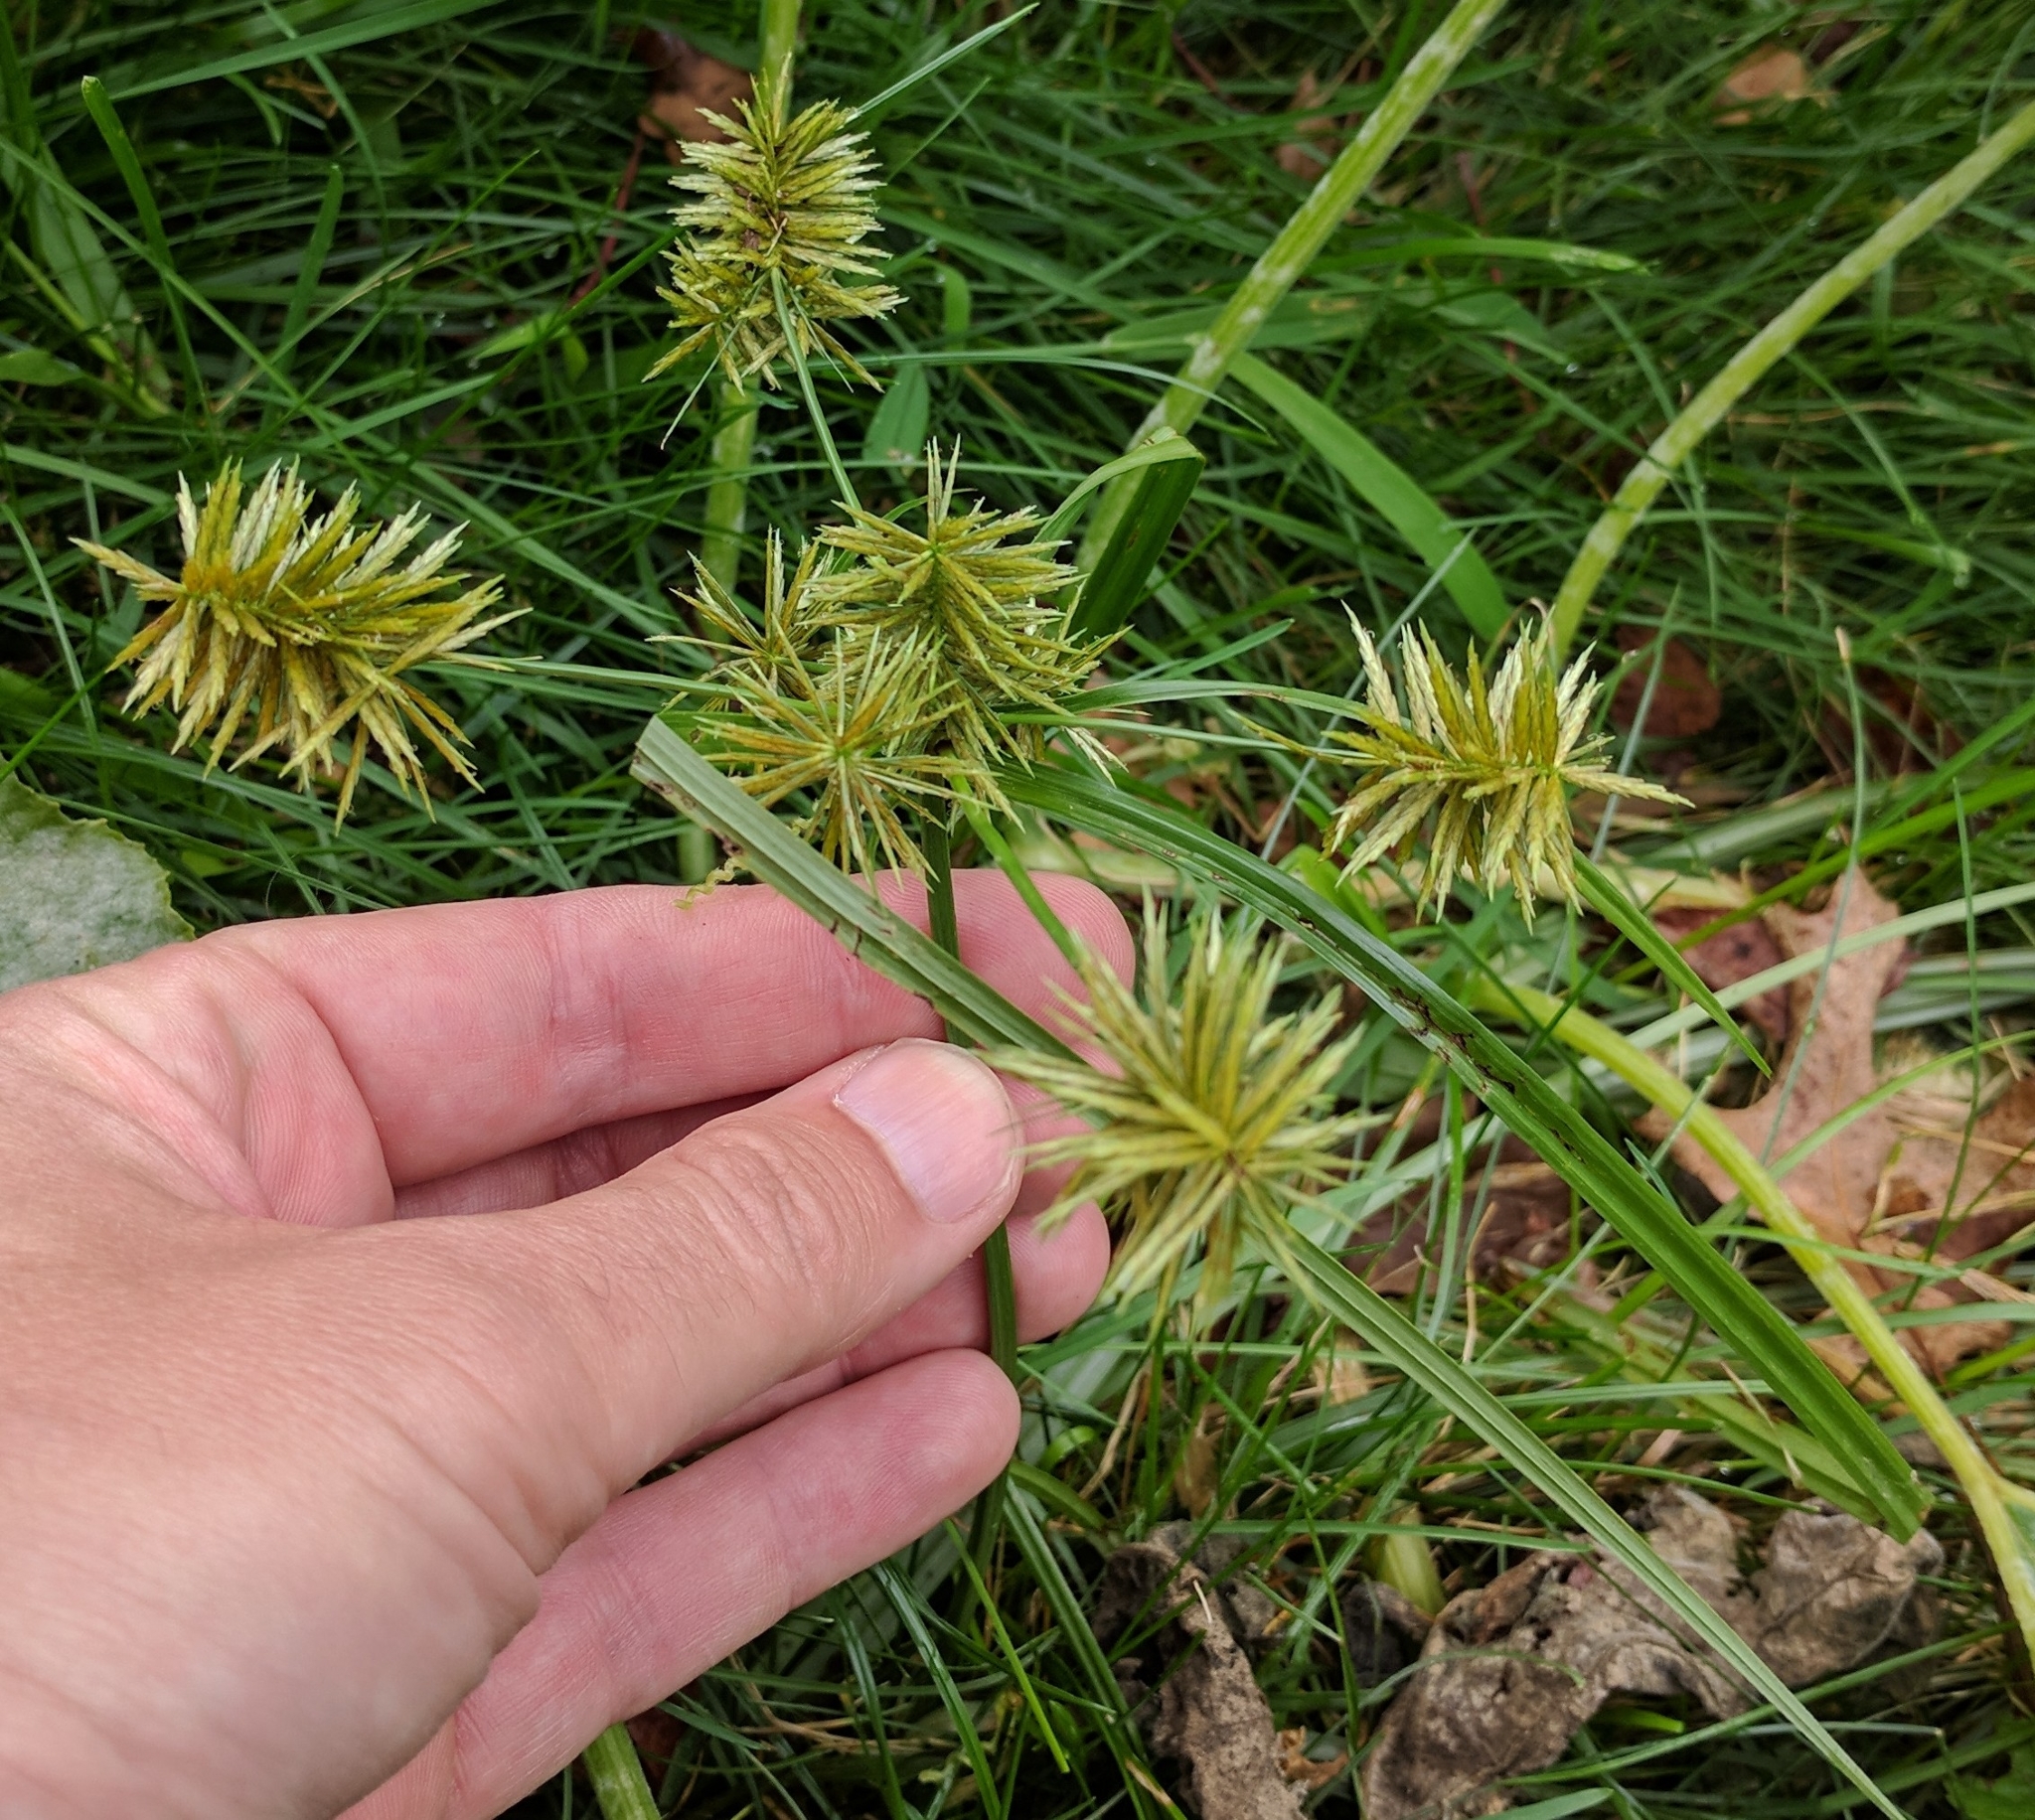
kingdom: Plantae
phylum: Tracheophyta
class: Liliopsida
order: Poales
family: Cyperaceae
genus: Cyperus
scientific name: Cyperus
